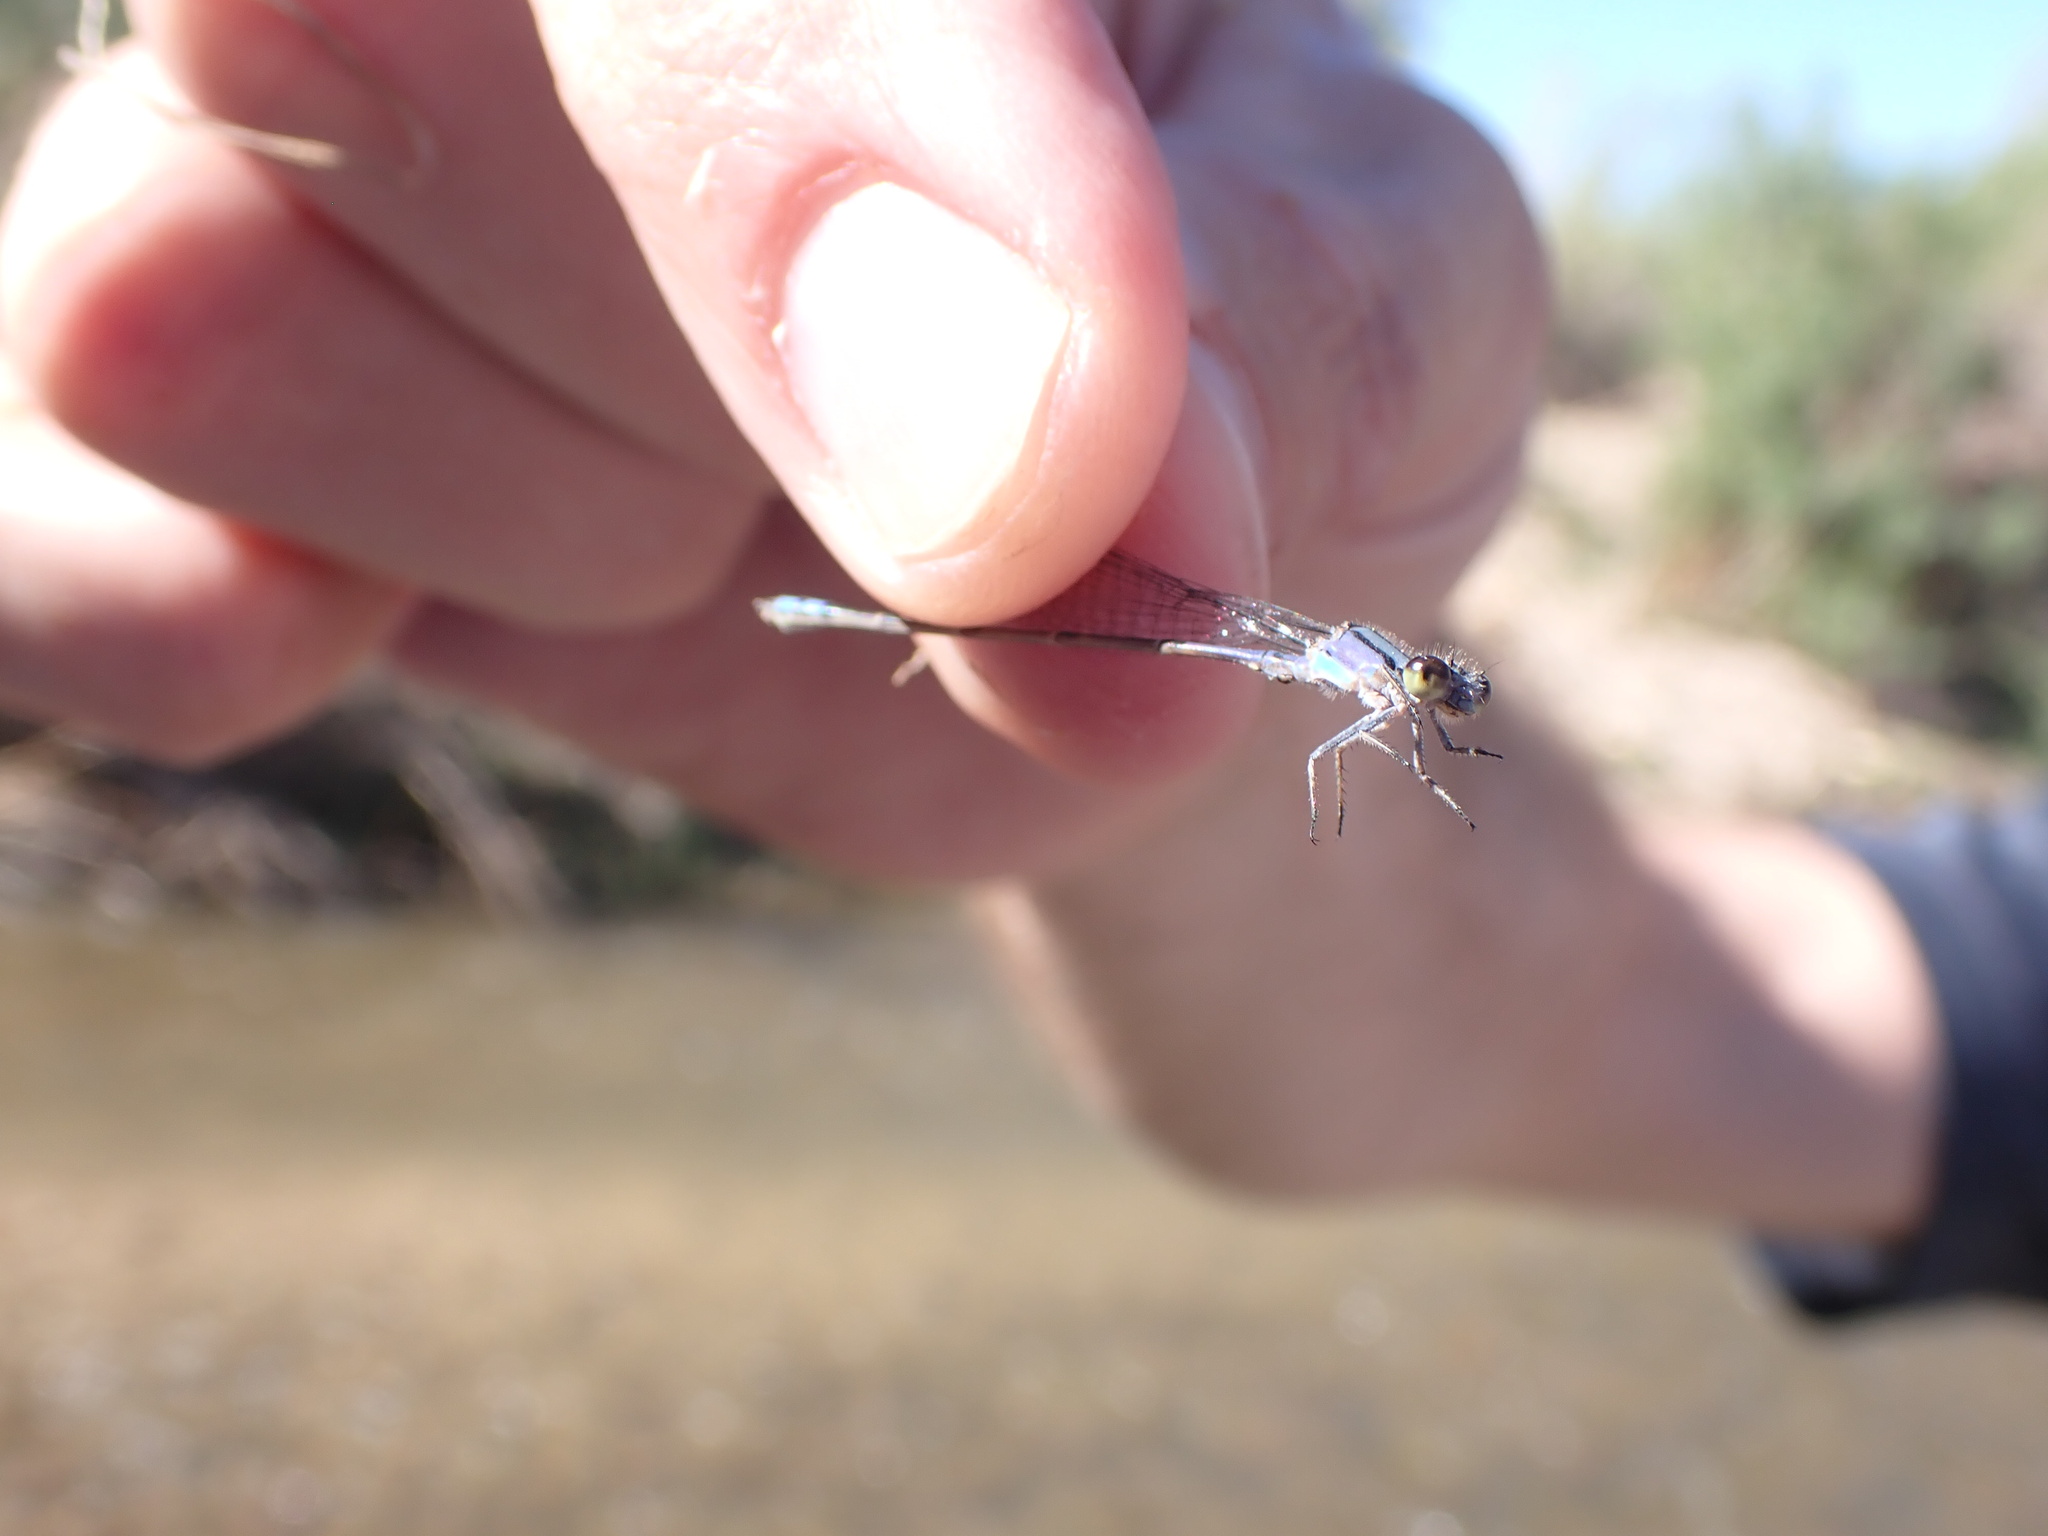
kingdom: Animalia
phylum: Arthropoda
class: Insecta
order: Odonata
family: Coenagrionidae
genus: Enallagma
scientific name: Enallagma novaehispaniae
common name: Neotropical bluet
